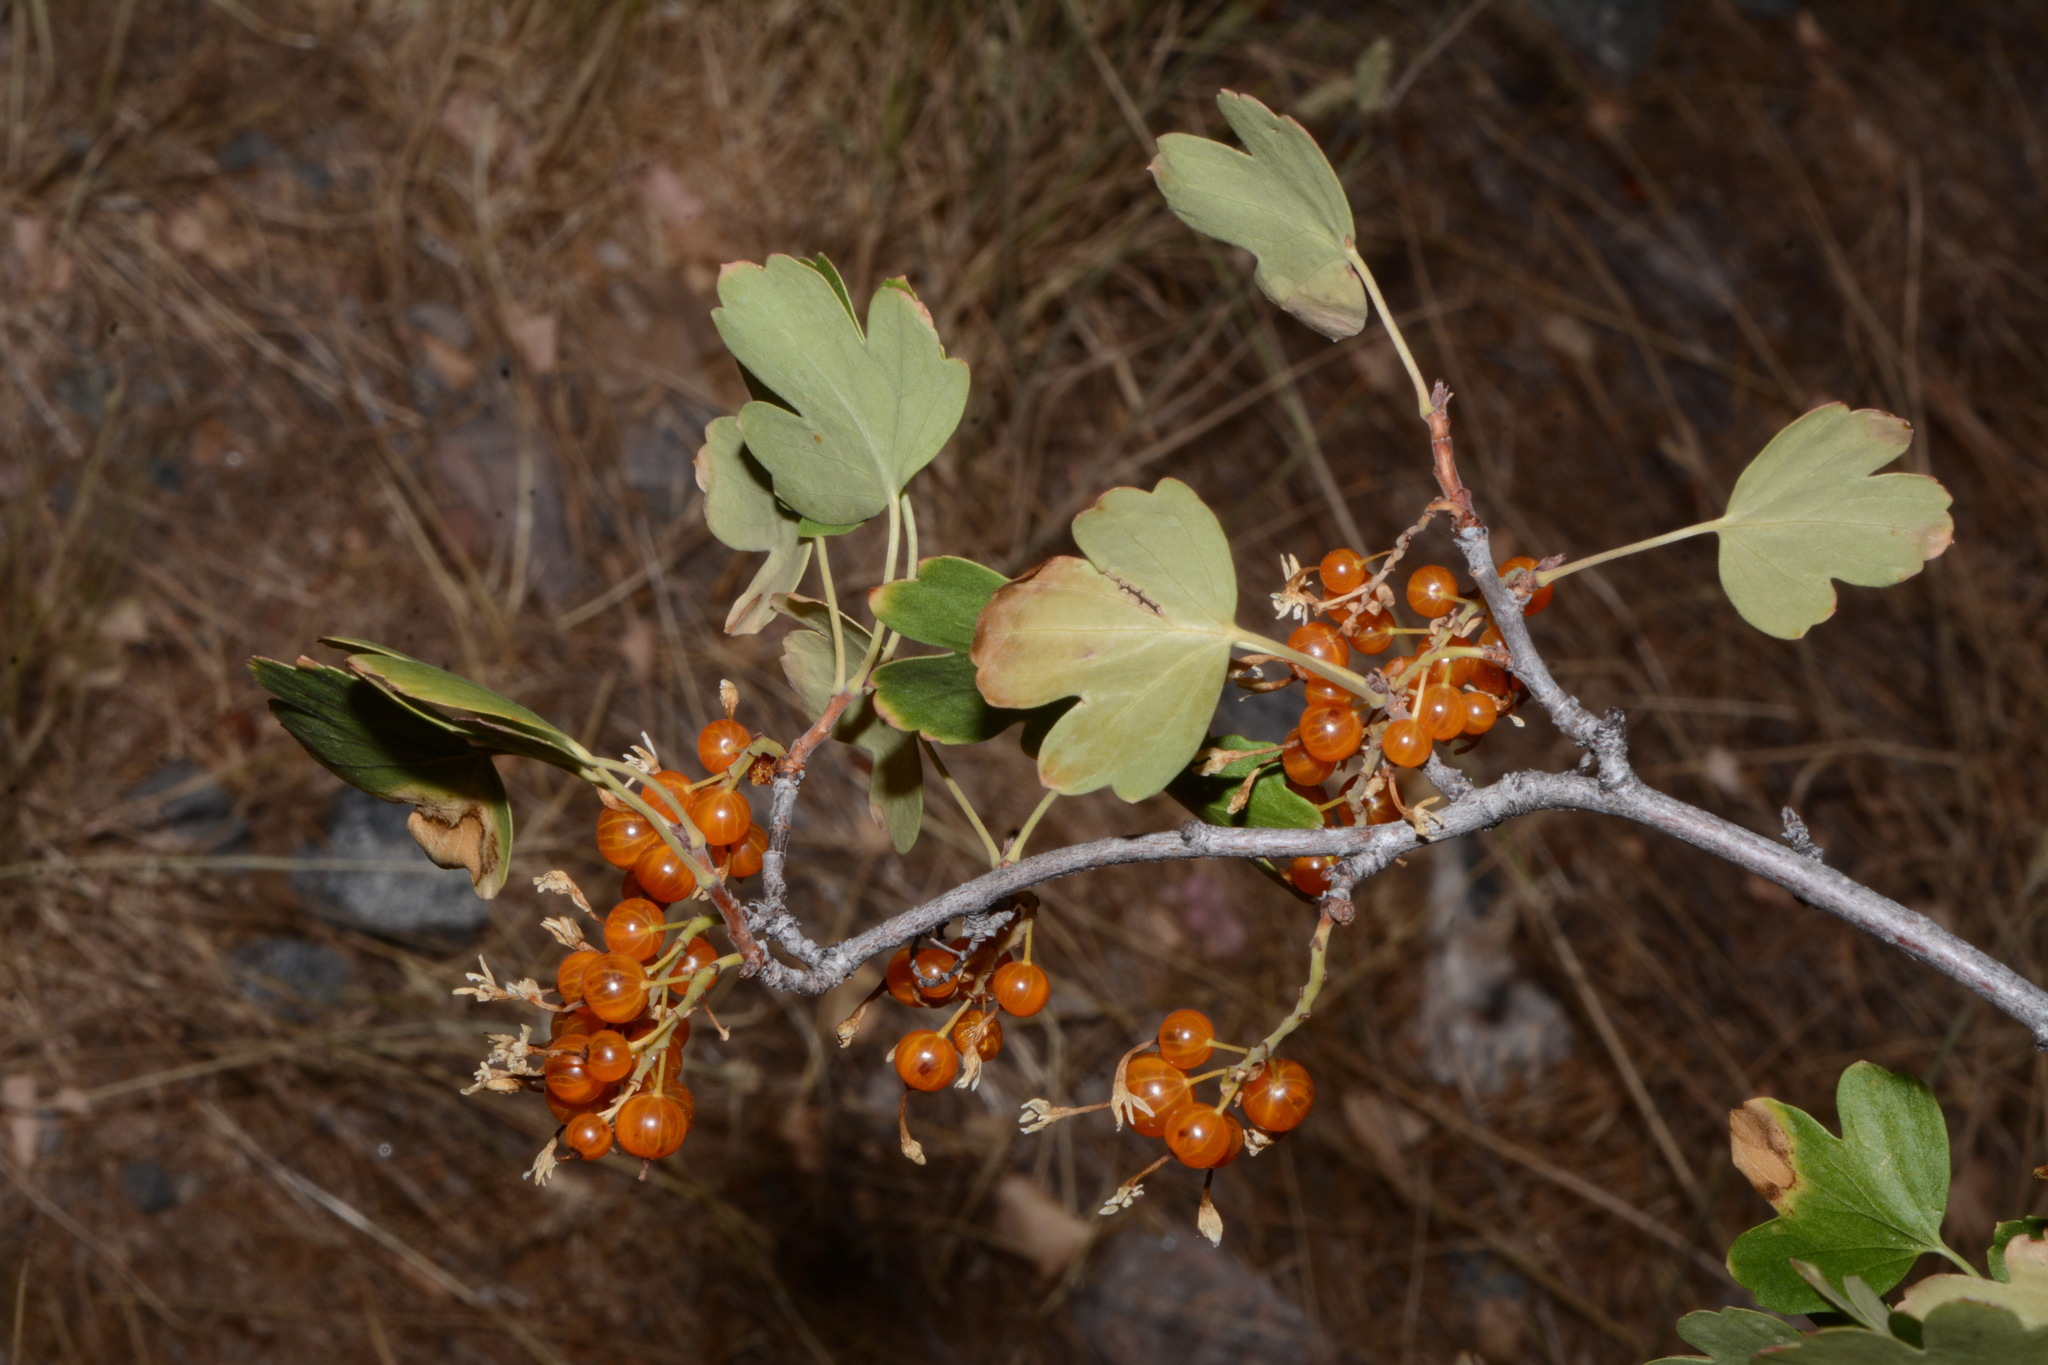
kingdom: Plantae
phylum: Tracheophyta
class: Magnoliopsida
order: Saxifragales
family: Grossulariaceae
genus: Ribes
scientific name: Ribes aureum
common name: Golden currant
